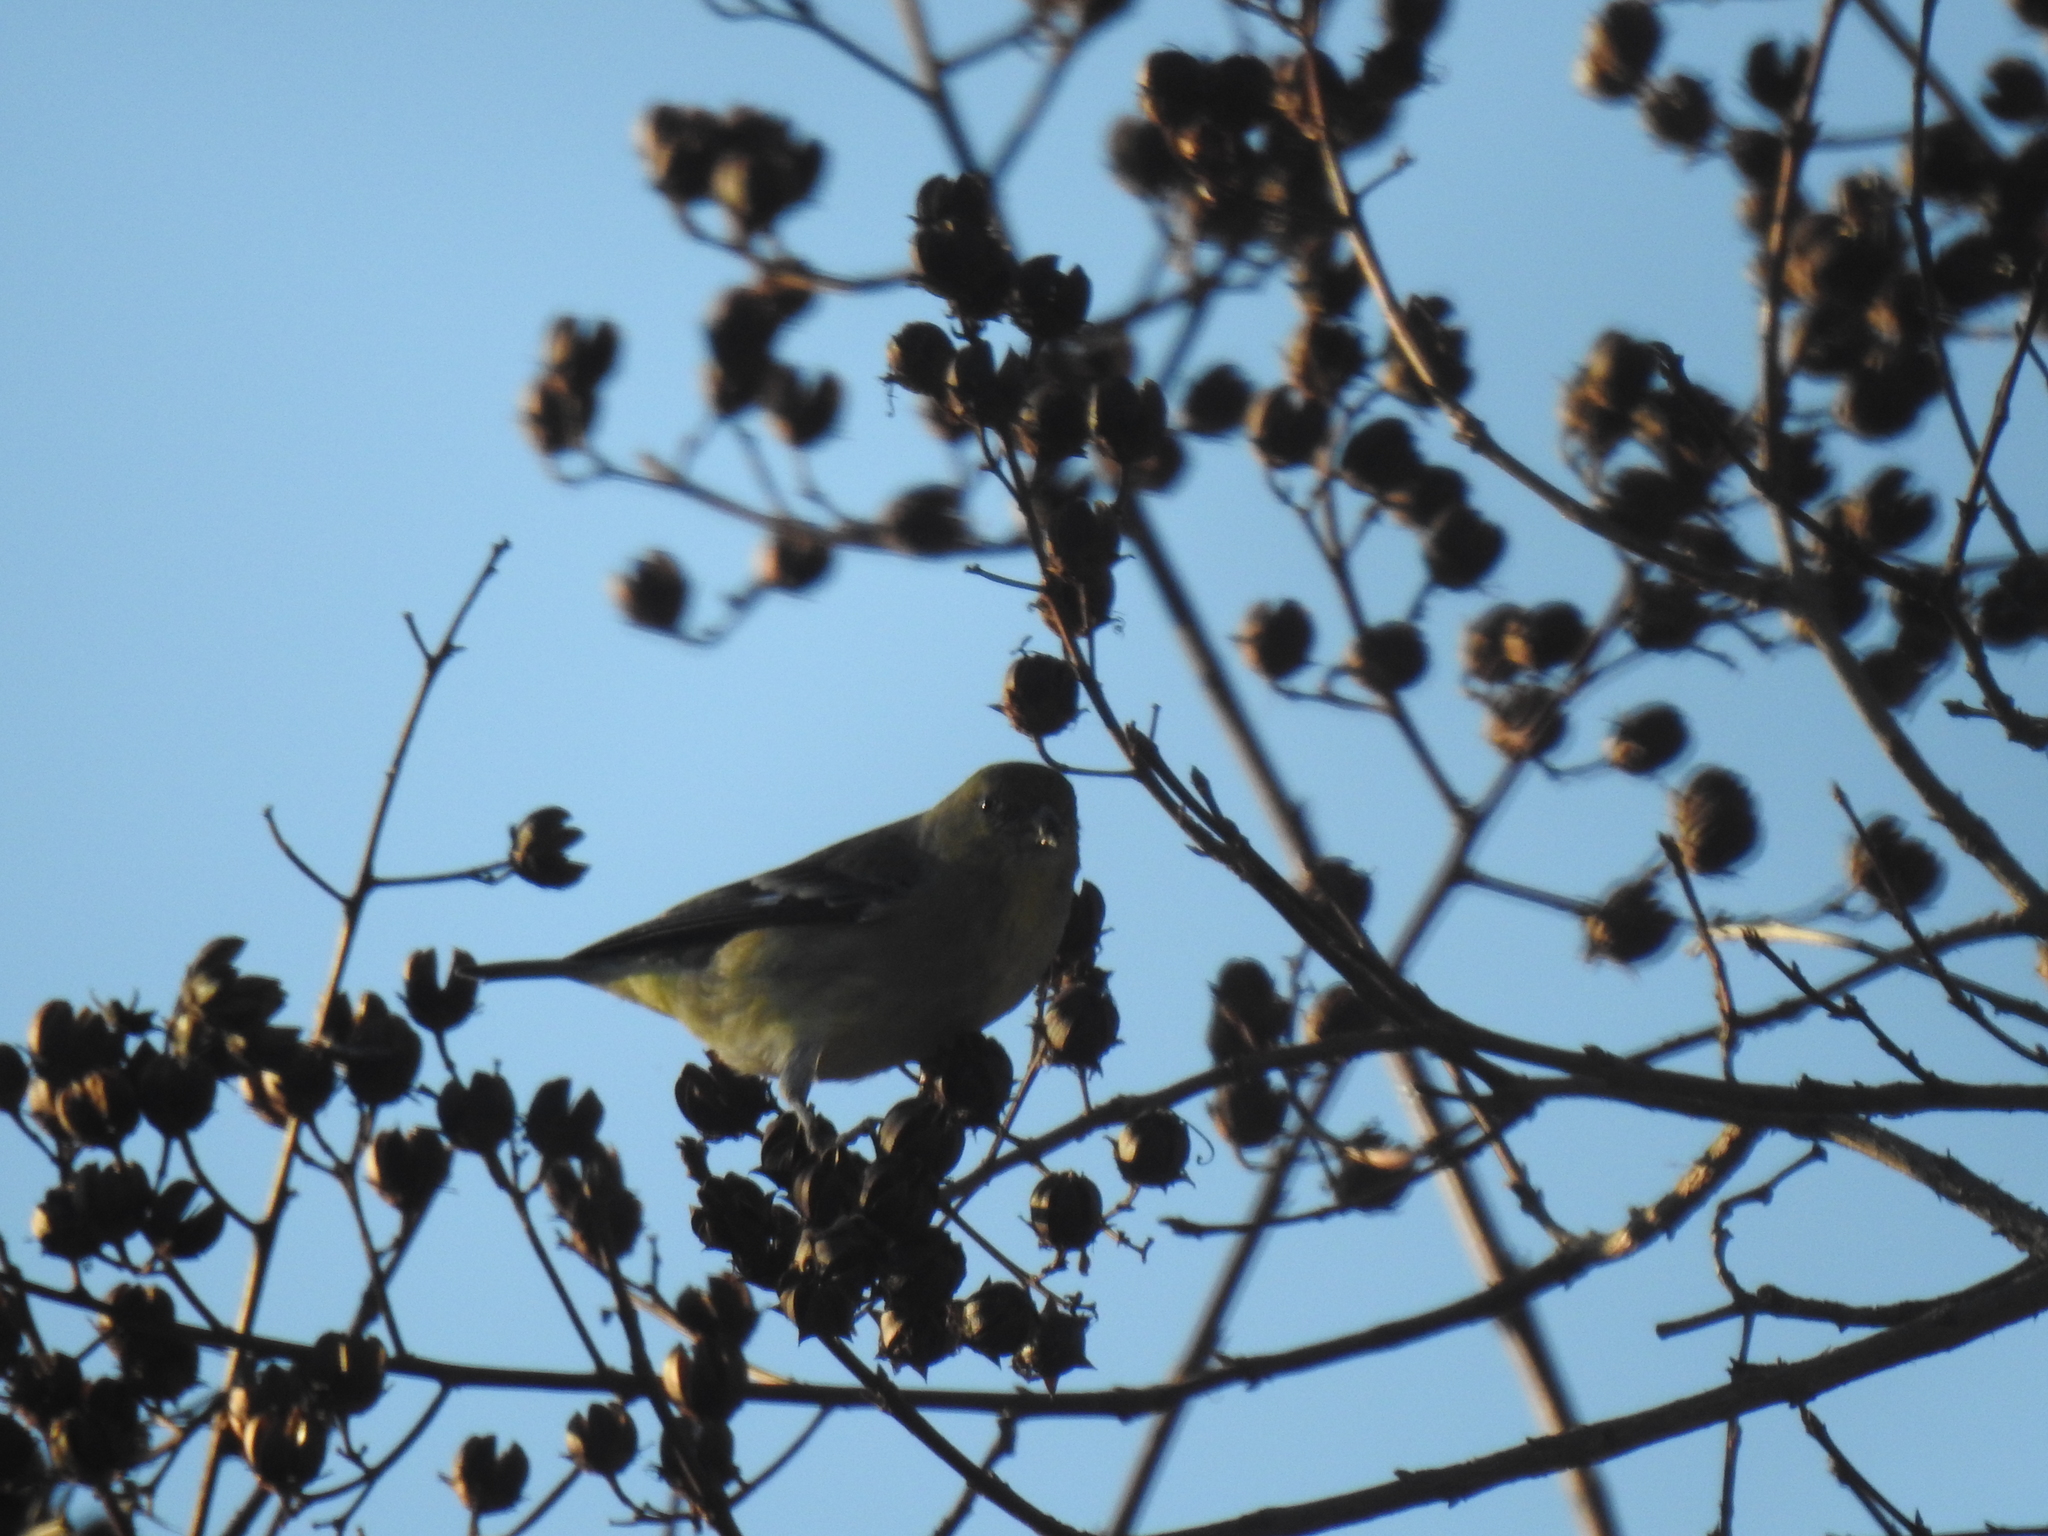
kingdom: Animalia
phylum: Chordata
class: Aves
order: Passeriformes
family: Fringillidae
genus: Spinus
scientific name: Spinus psaltria
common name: Lesser goldfinch
